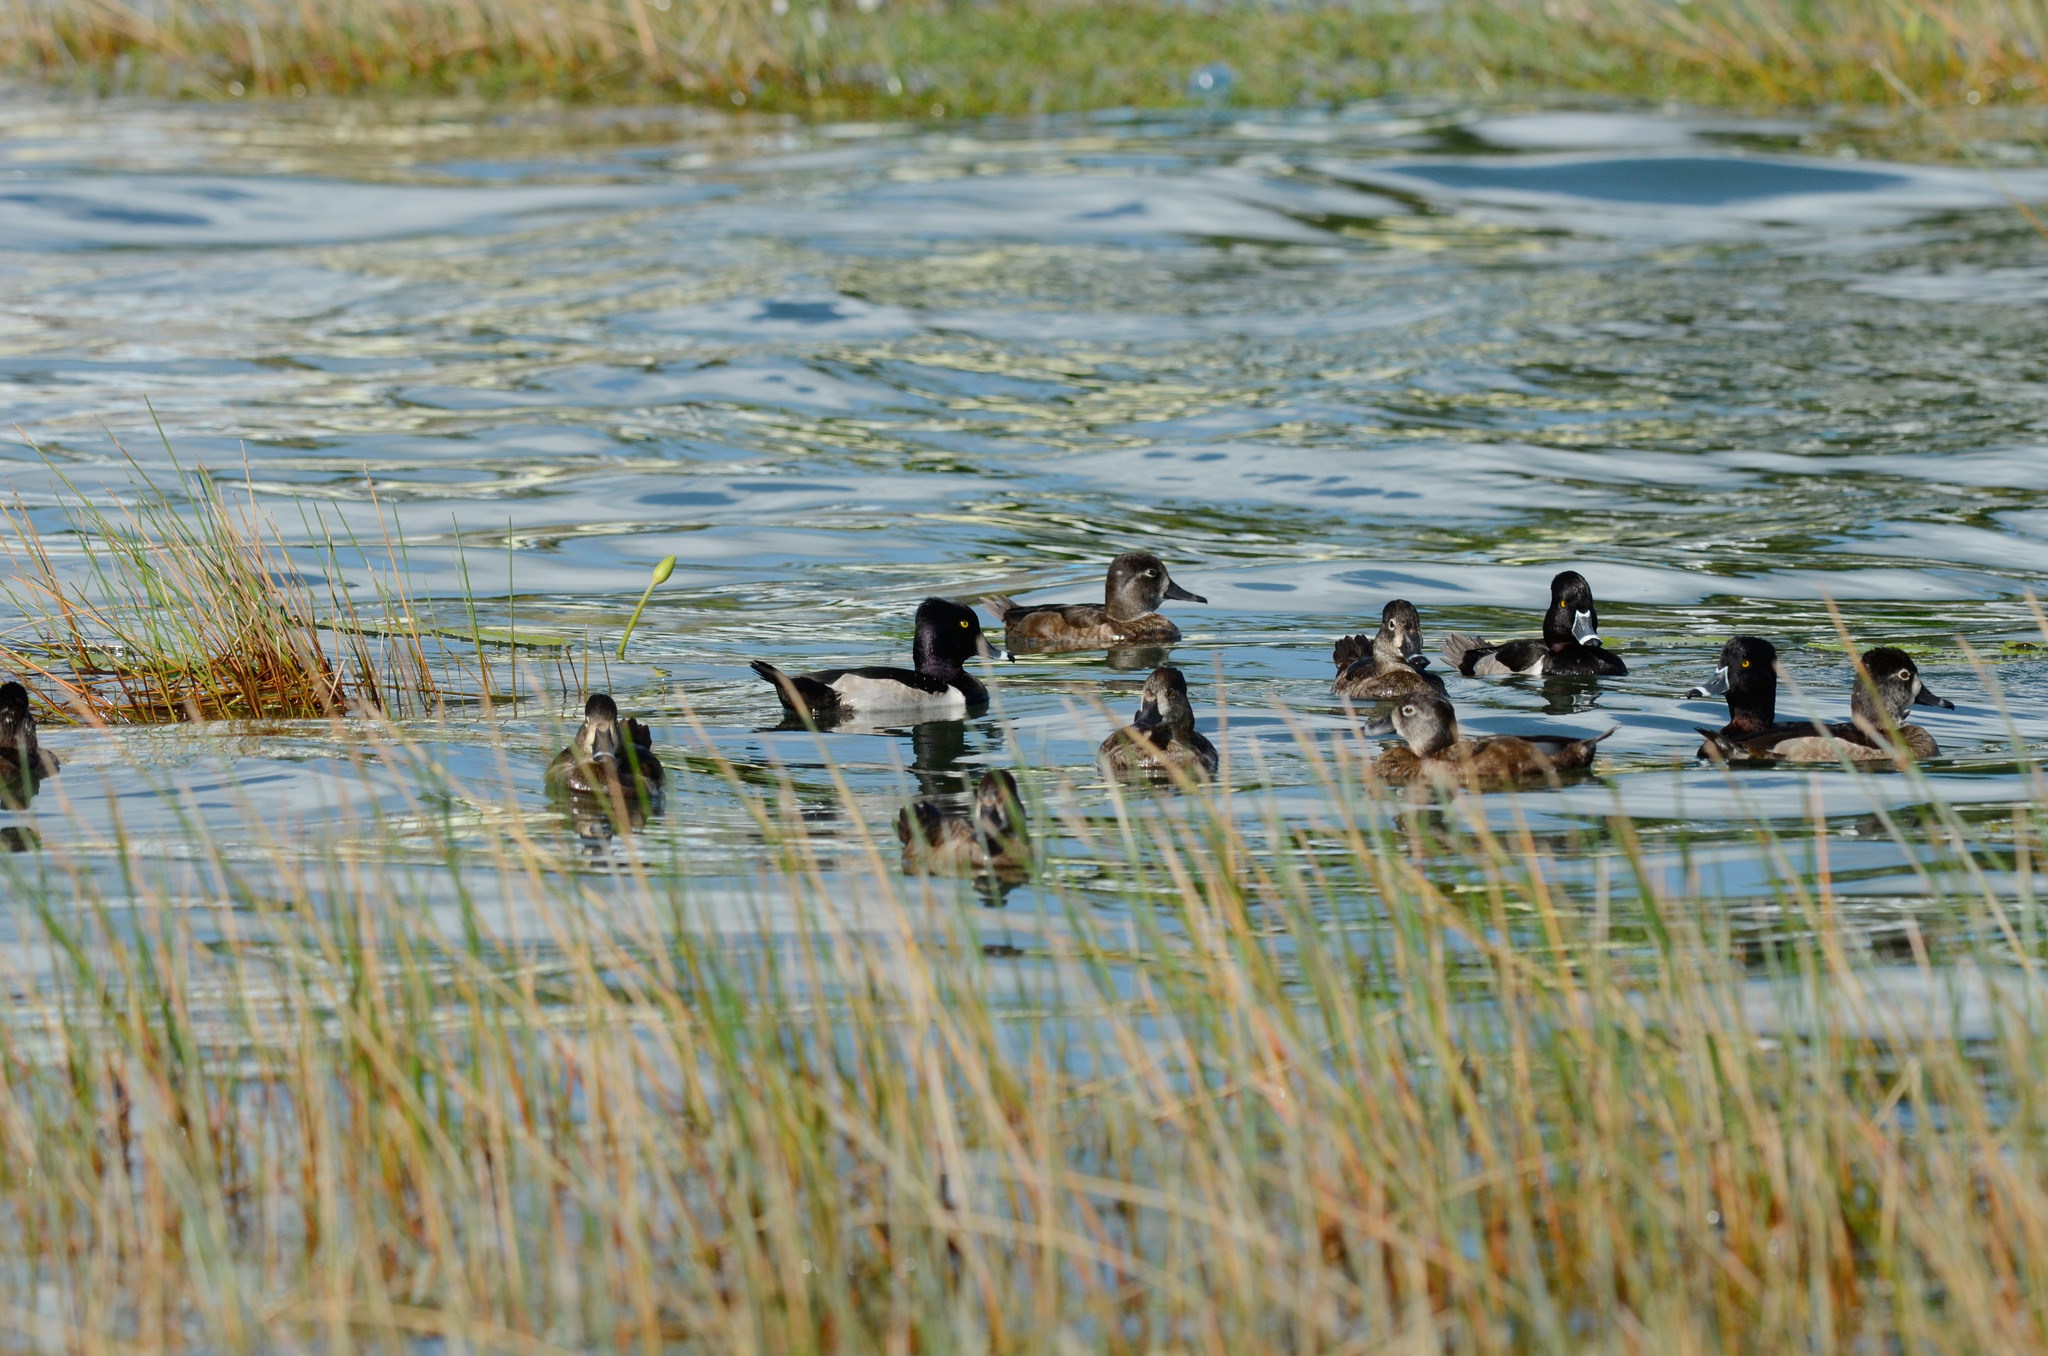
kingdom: Animalia
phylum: Chordata
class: Aves
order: Anseriformes
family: Anatidae
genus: Aythya
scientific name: Aythya collaris
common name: Ring-necked duck
